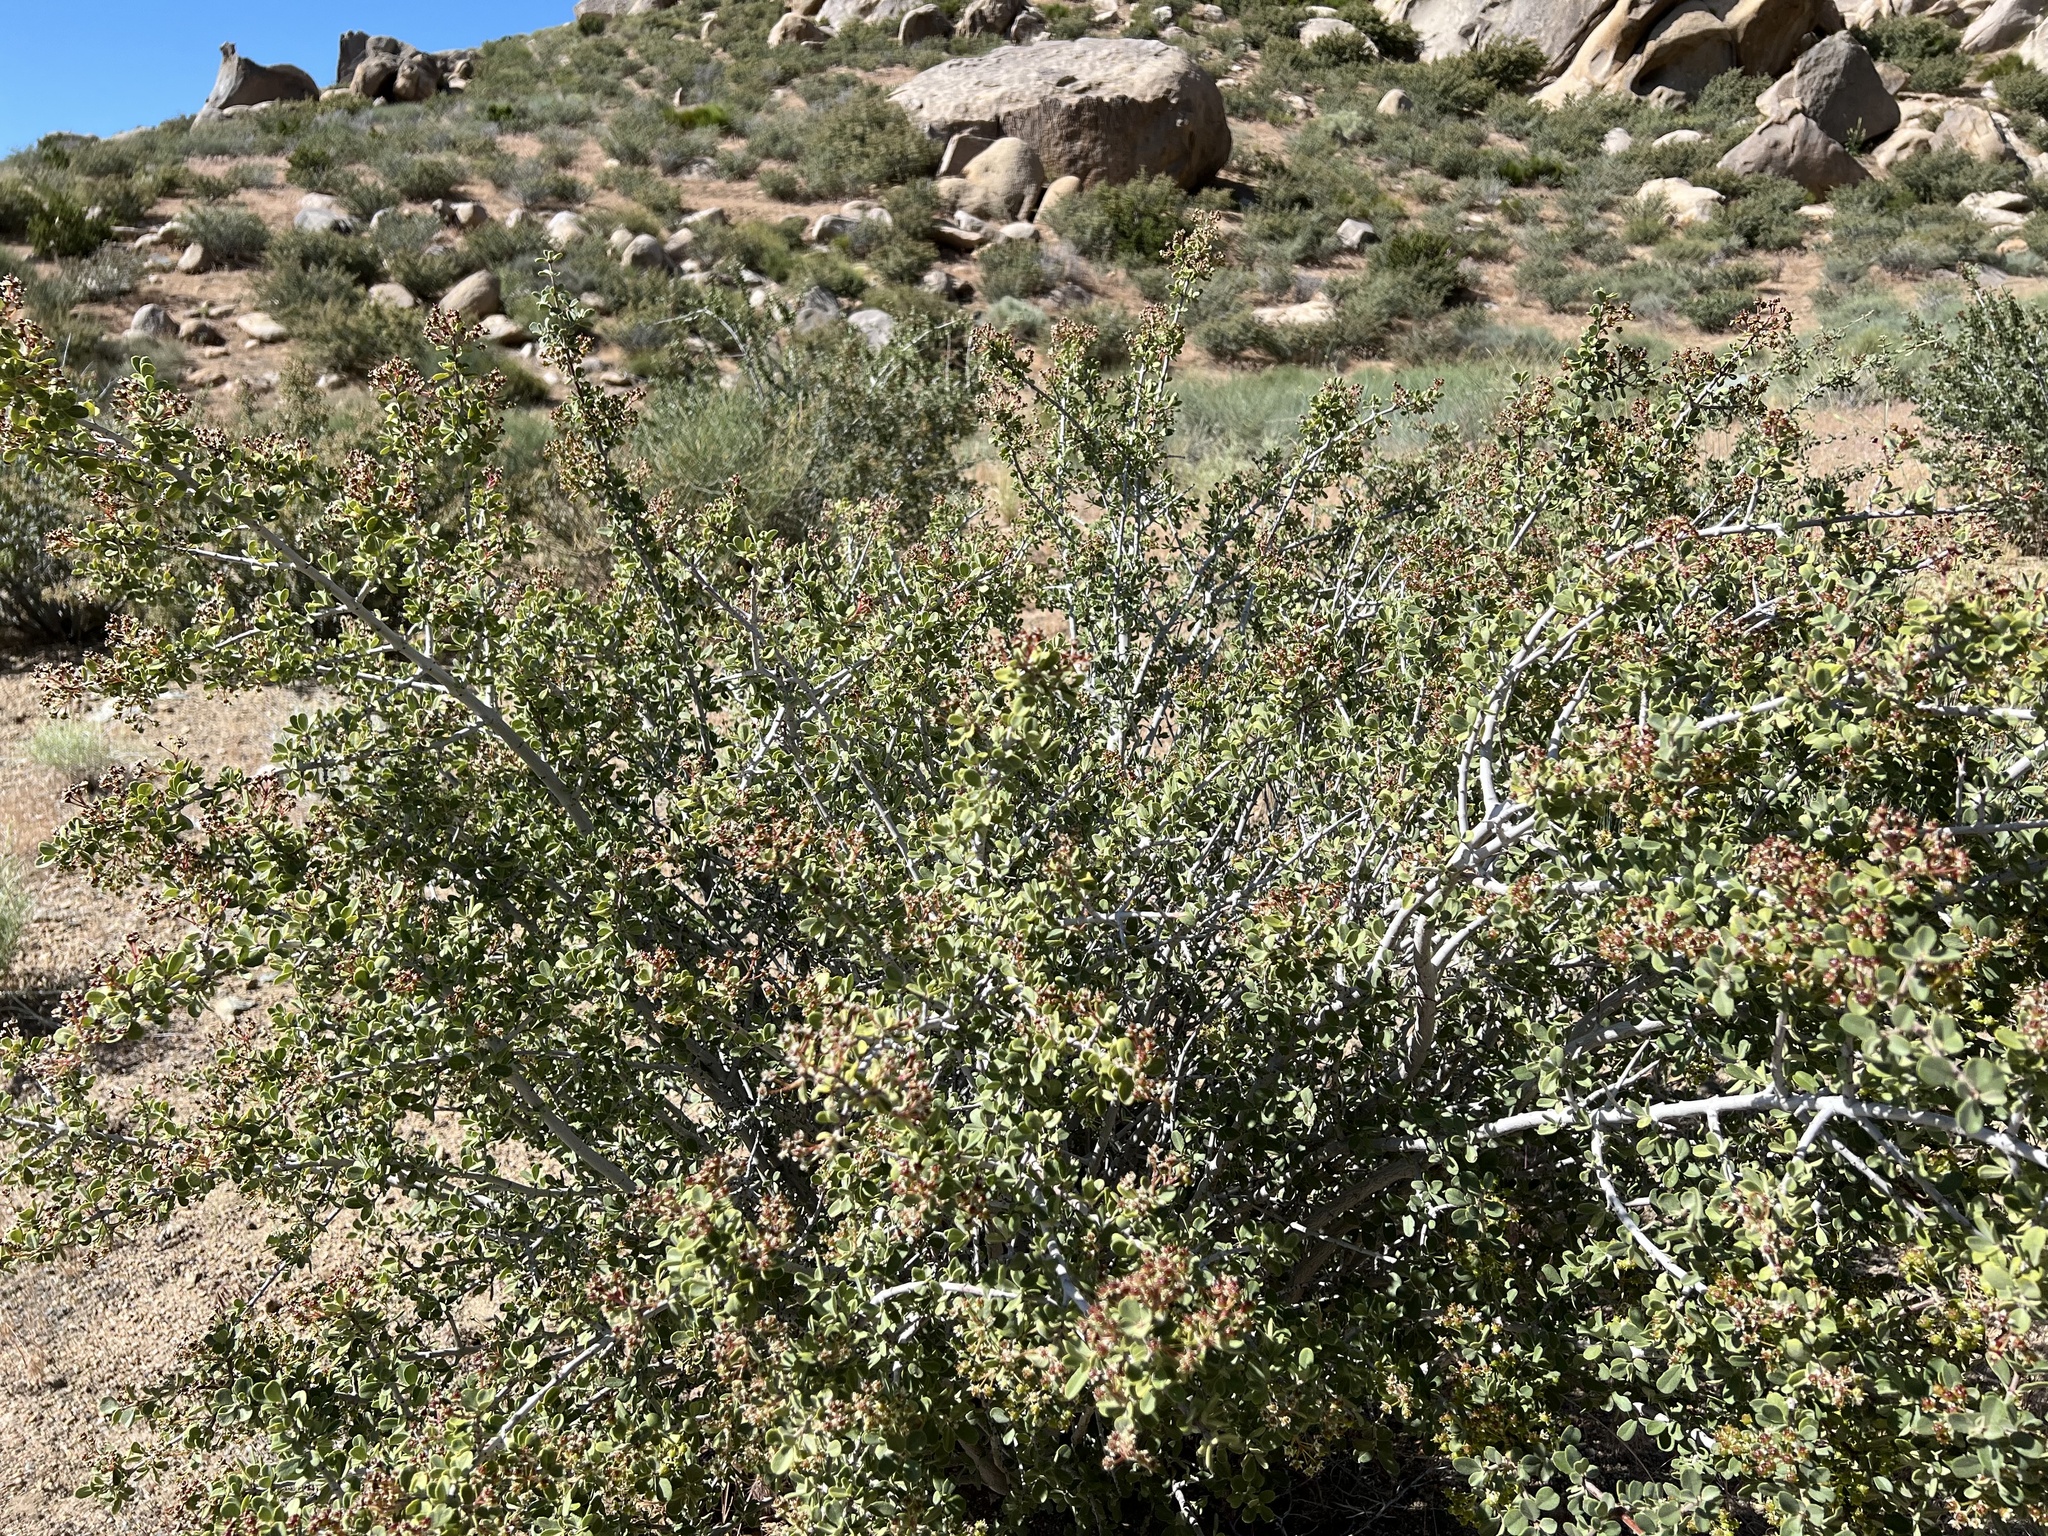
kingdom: Plantae
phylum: Tracheophyta
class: Magnoliopsida
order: Rosales
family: Rhamnaceae
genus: Ceanothus
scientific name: Ceanothus pauciflorus
